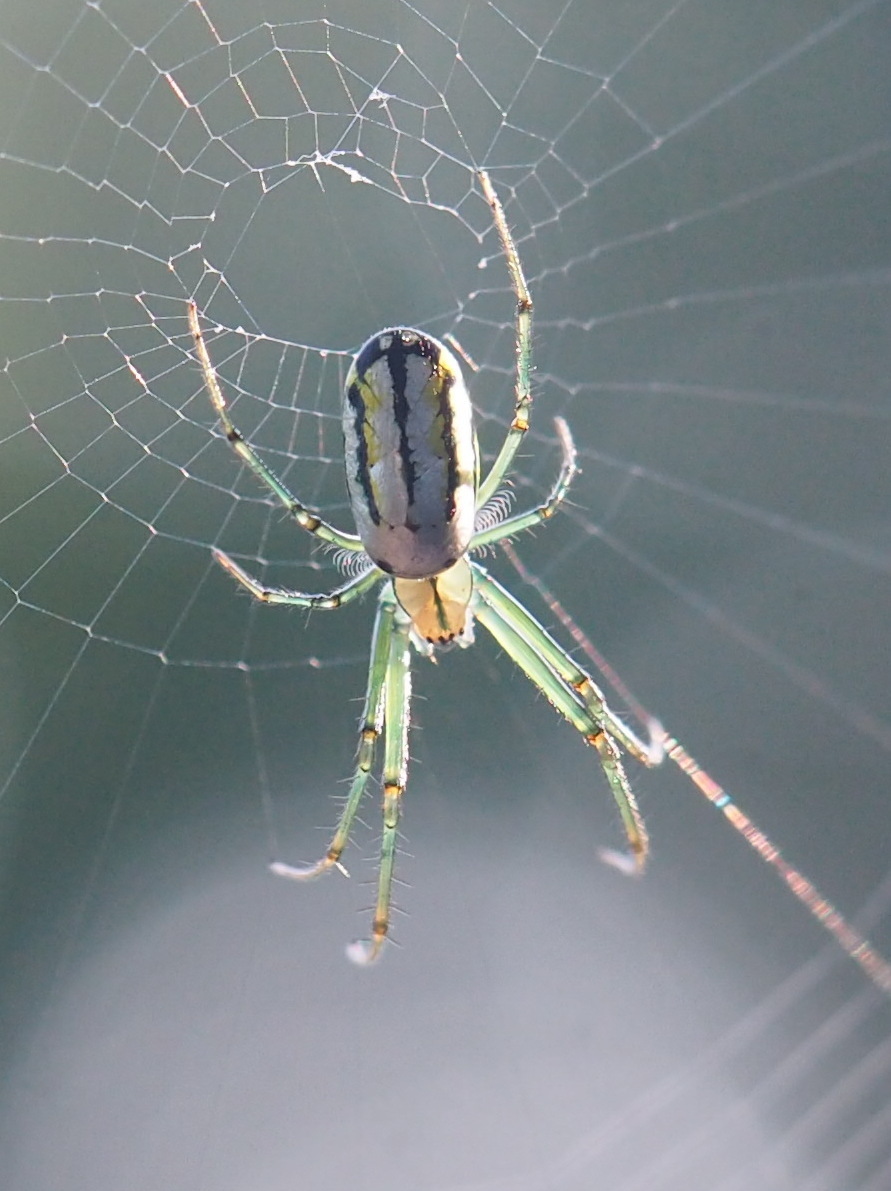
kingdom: Animalia
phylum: Arthropoda
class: Arachnida
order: Araneae
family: Tetragnathidae
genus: Leucauge
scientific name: Leucauge venusta
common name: Longjawed orb weavers
